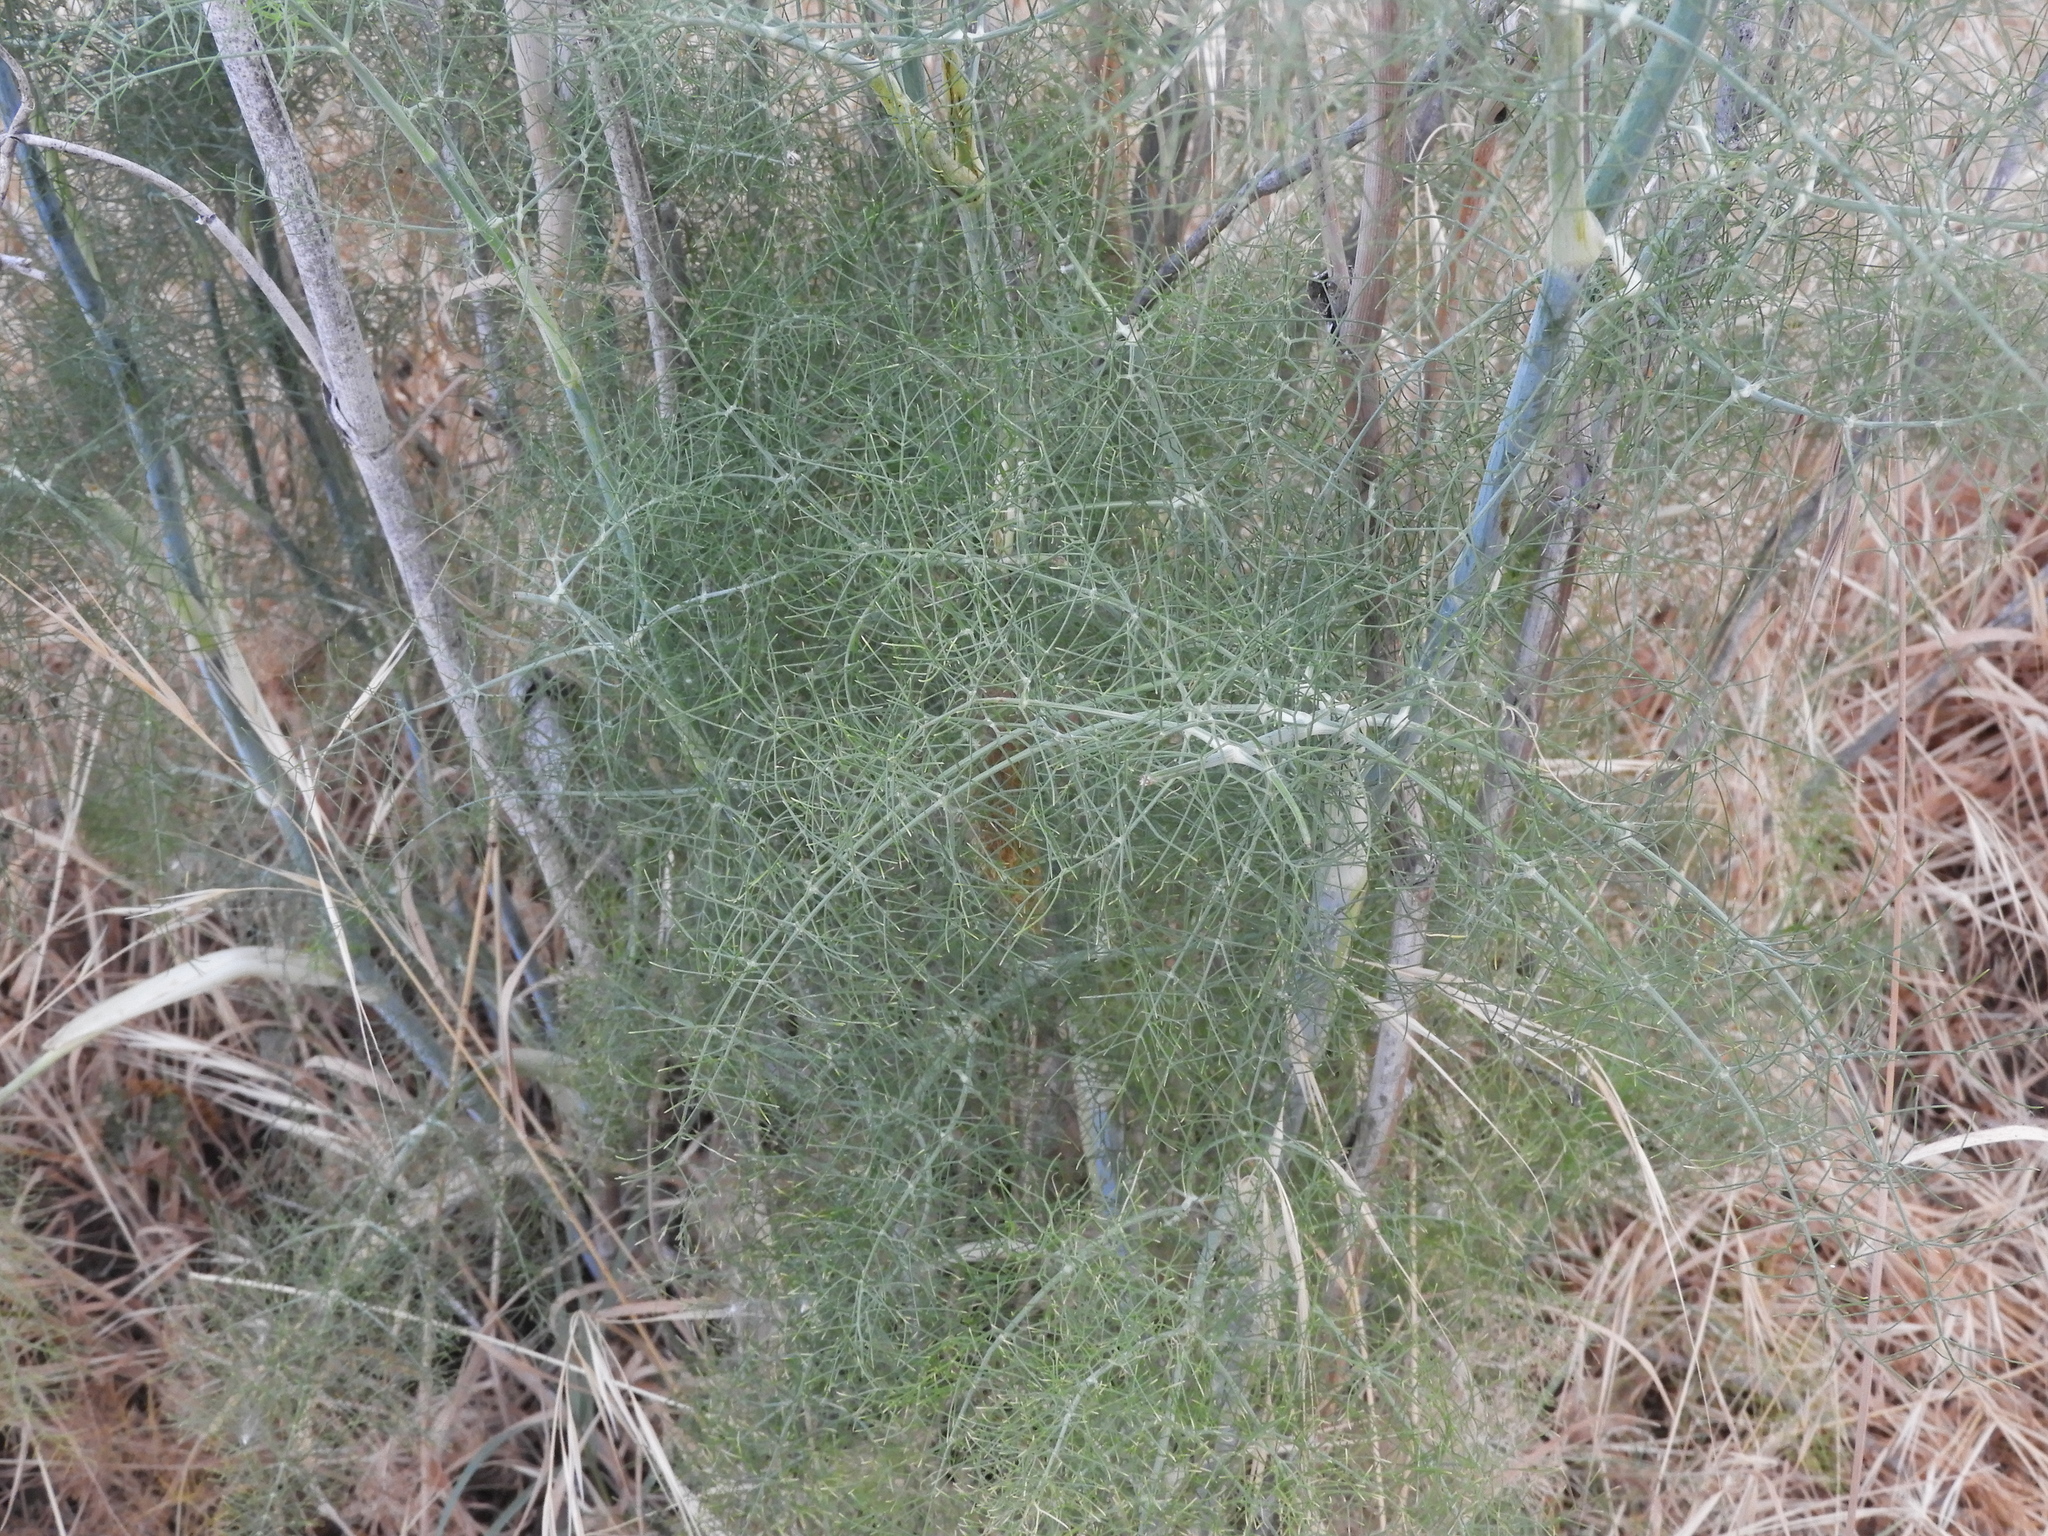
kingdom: Plantae
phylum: Tracheophyta
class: Magnoliopsida
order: Apiales
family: Apiaceae
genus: Foeniculum
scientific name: Foeniculum vulgare
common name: Fennel
